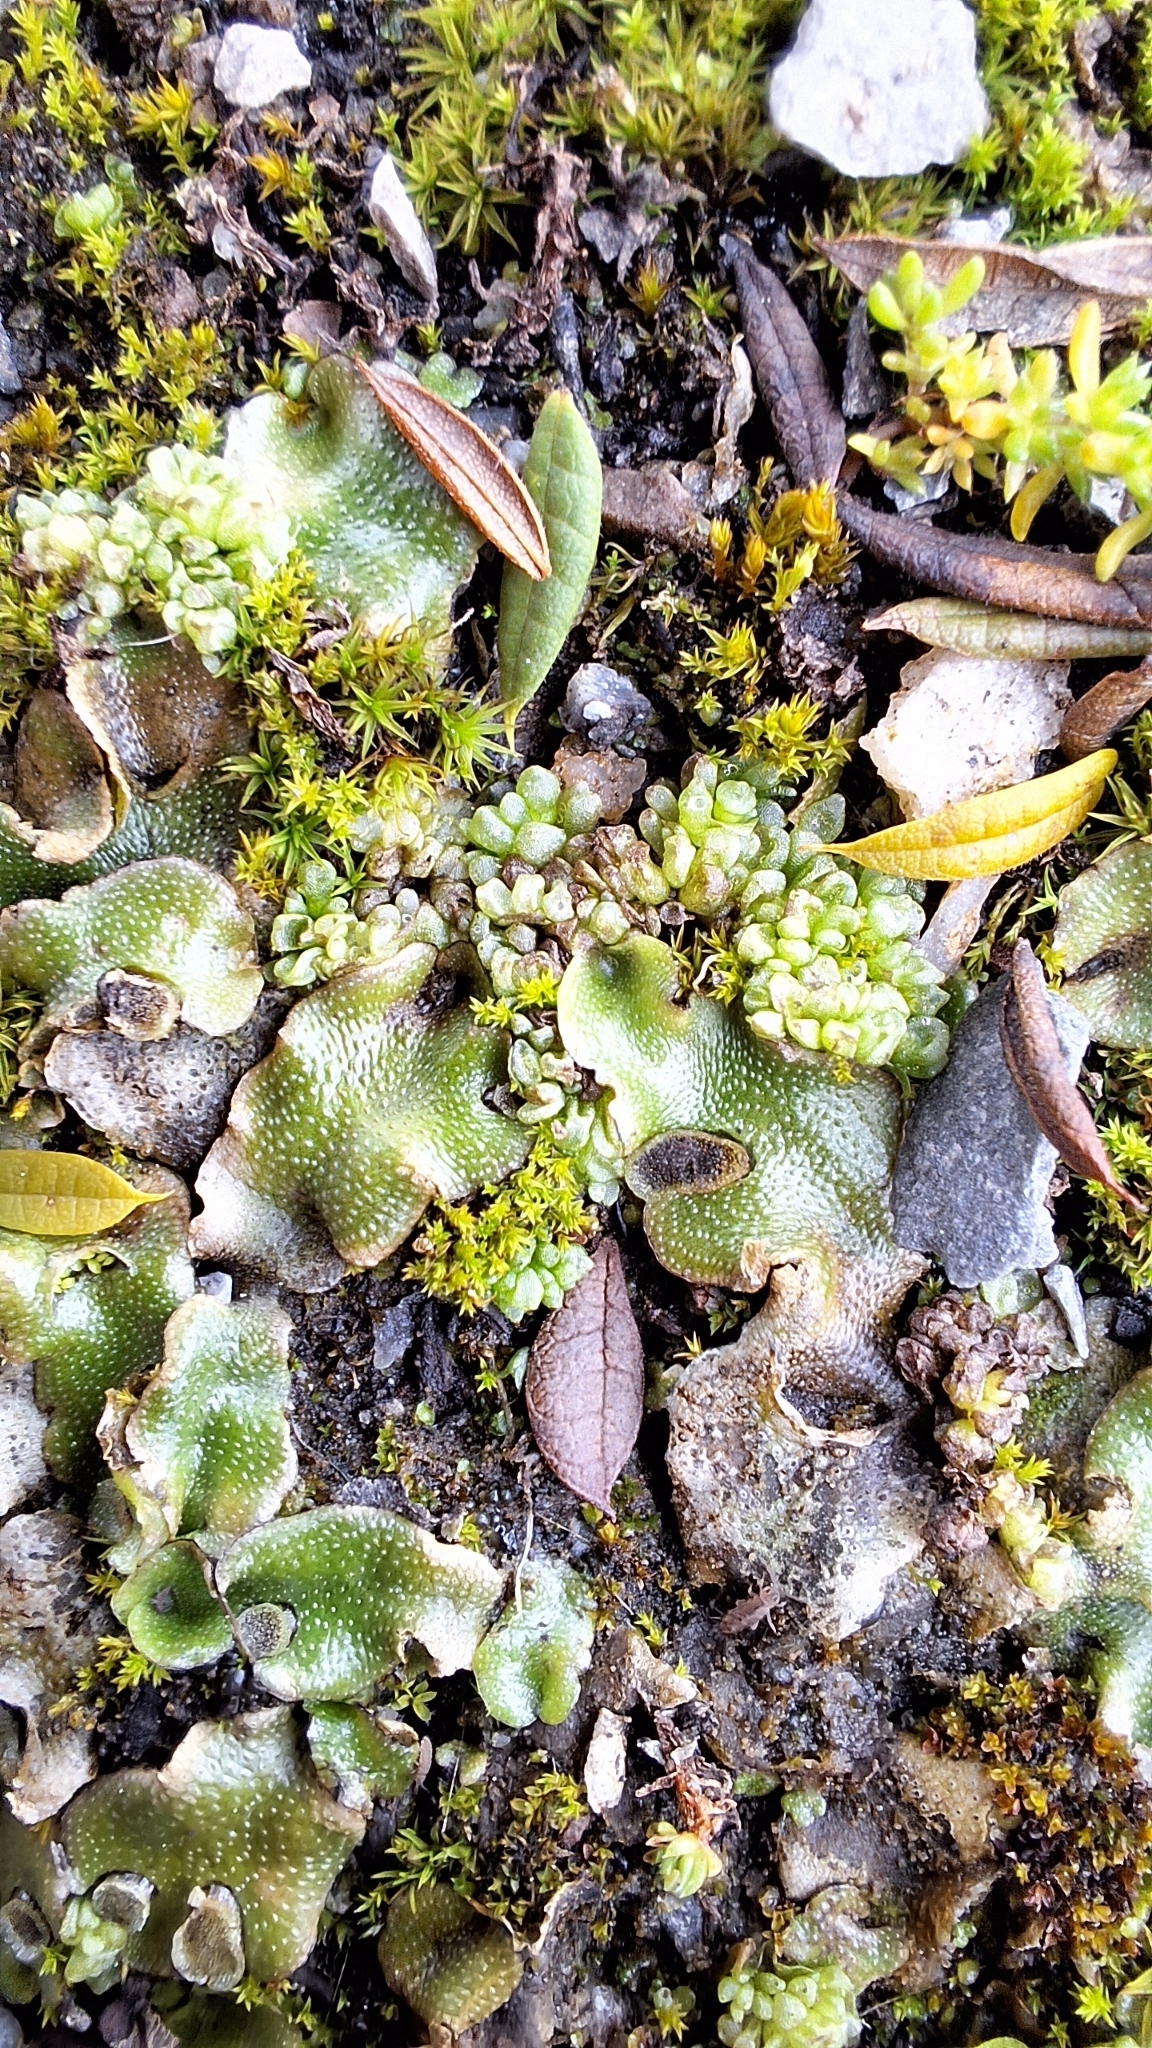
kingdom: Plantae
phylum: Marchantiophyta
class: Marchantiopsida
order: Sphaerocarpales
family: Sphaerocarpaceae
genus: Sphaerocarpos
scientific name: Sphaerocarpos texanus
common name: Texas balloonwort
